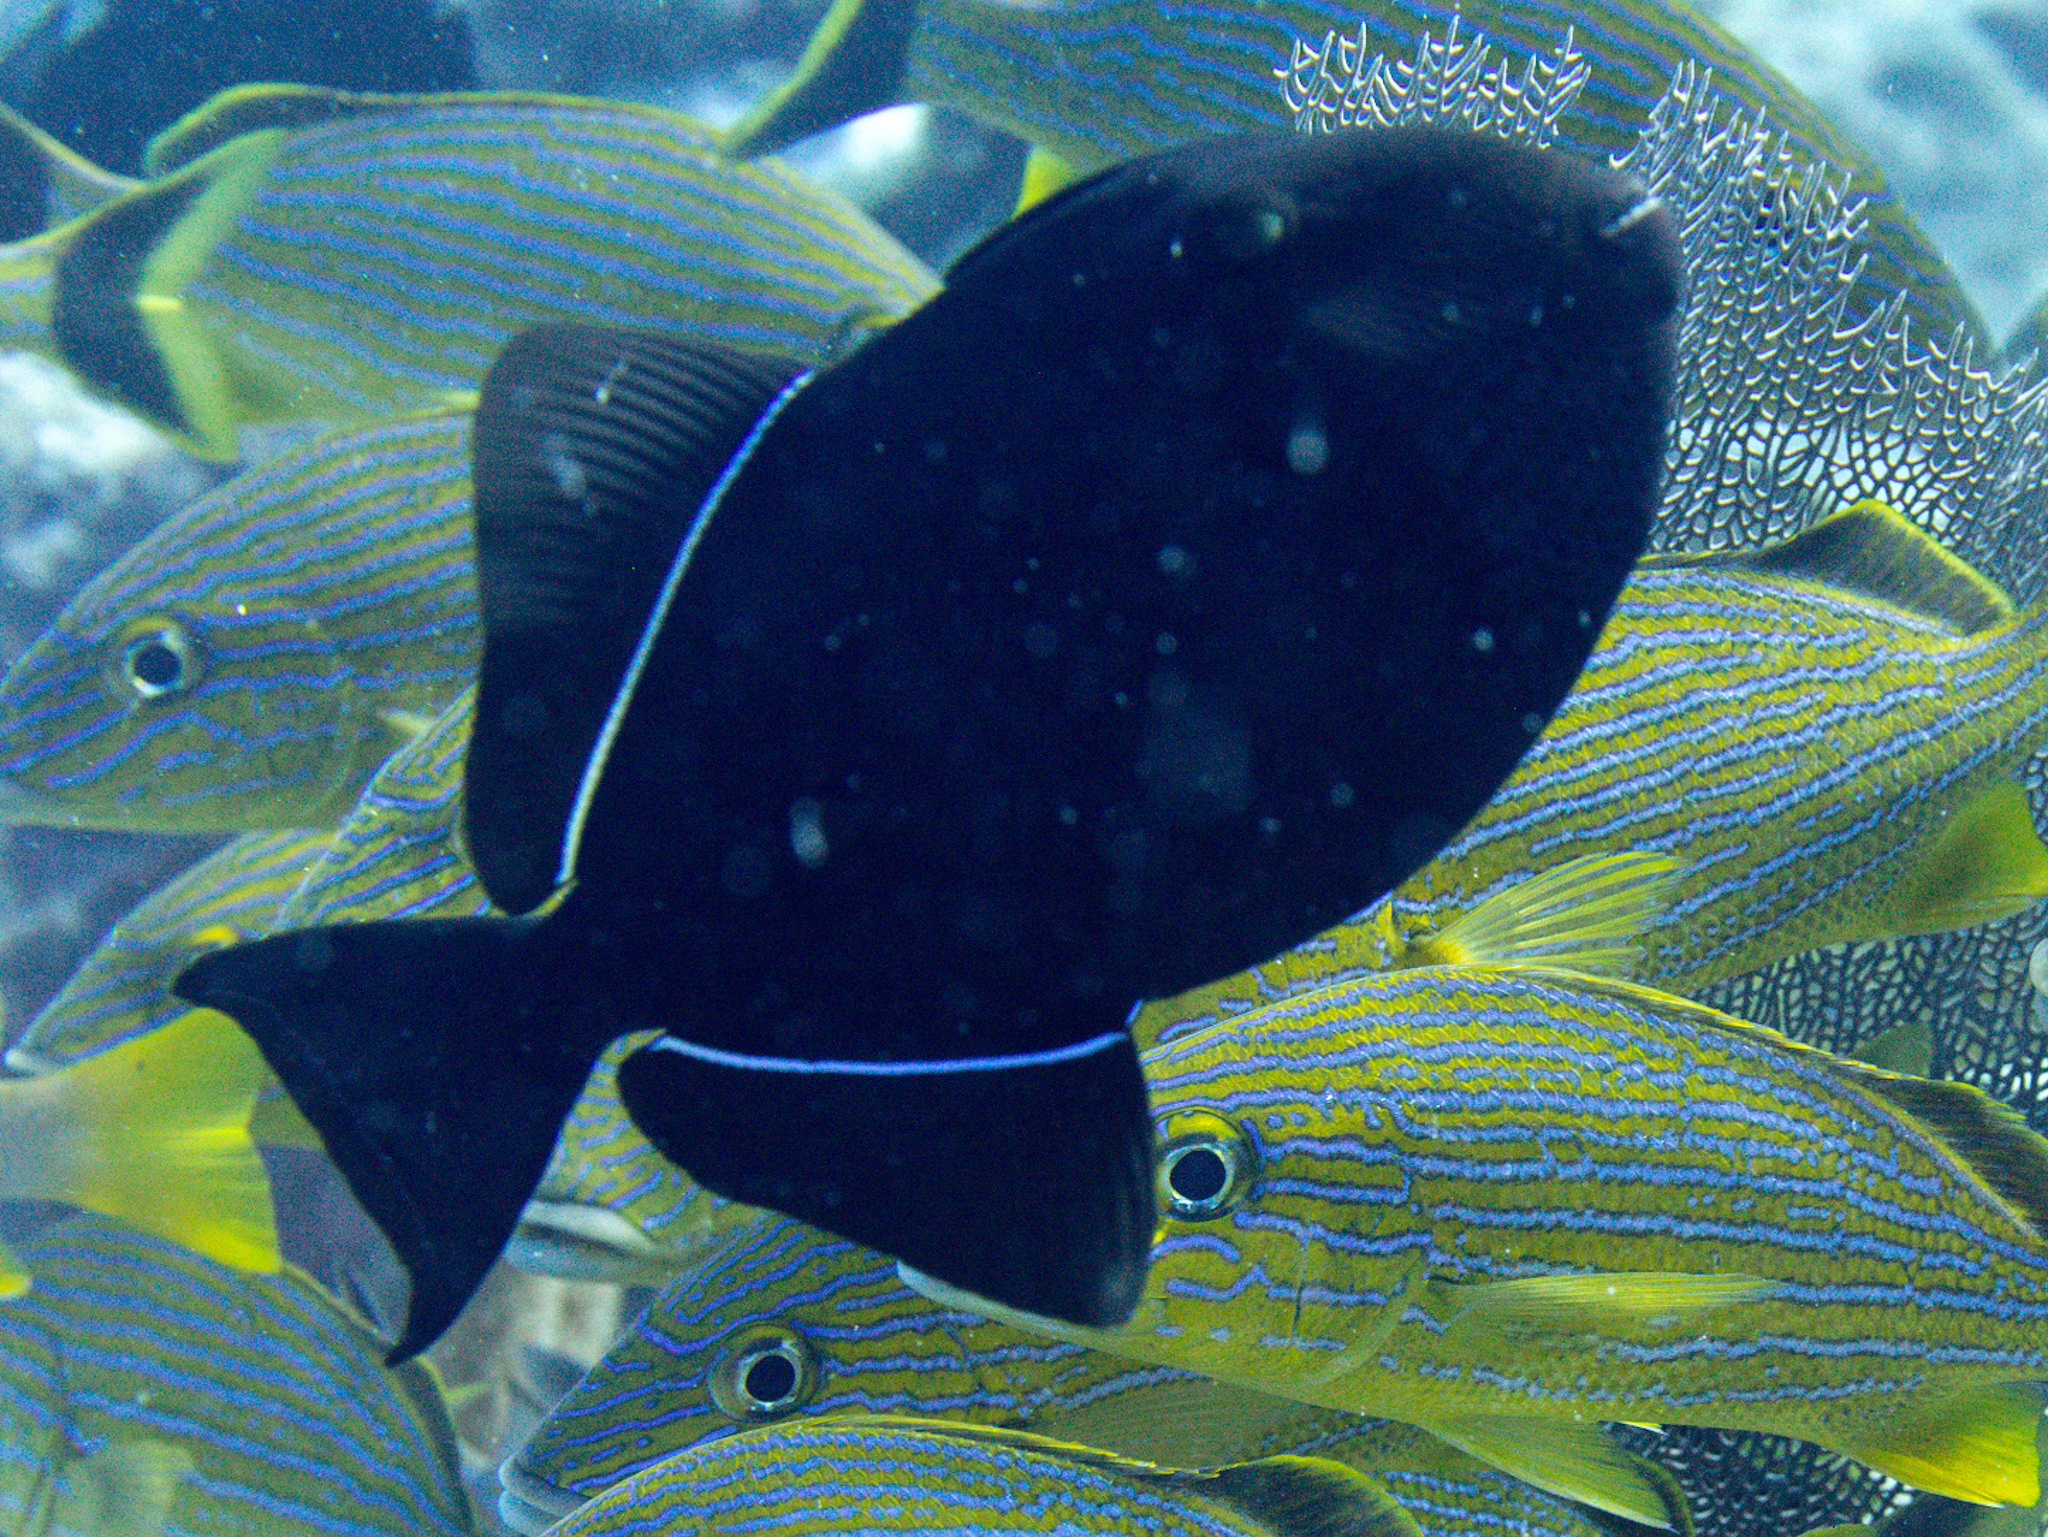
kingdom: Animalia
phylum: Chordata
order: Tetraodontiformes
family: Balistidae
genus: Melichthys
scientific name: Melichthys niger
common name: Black durgon
